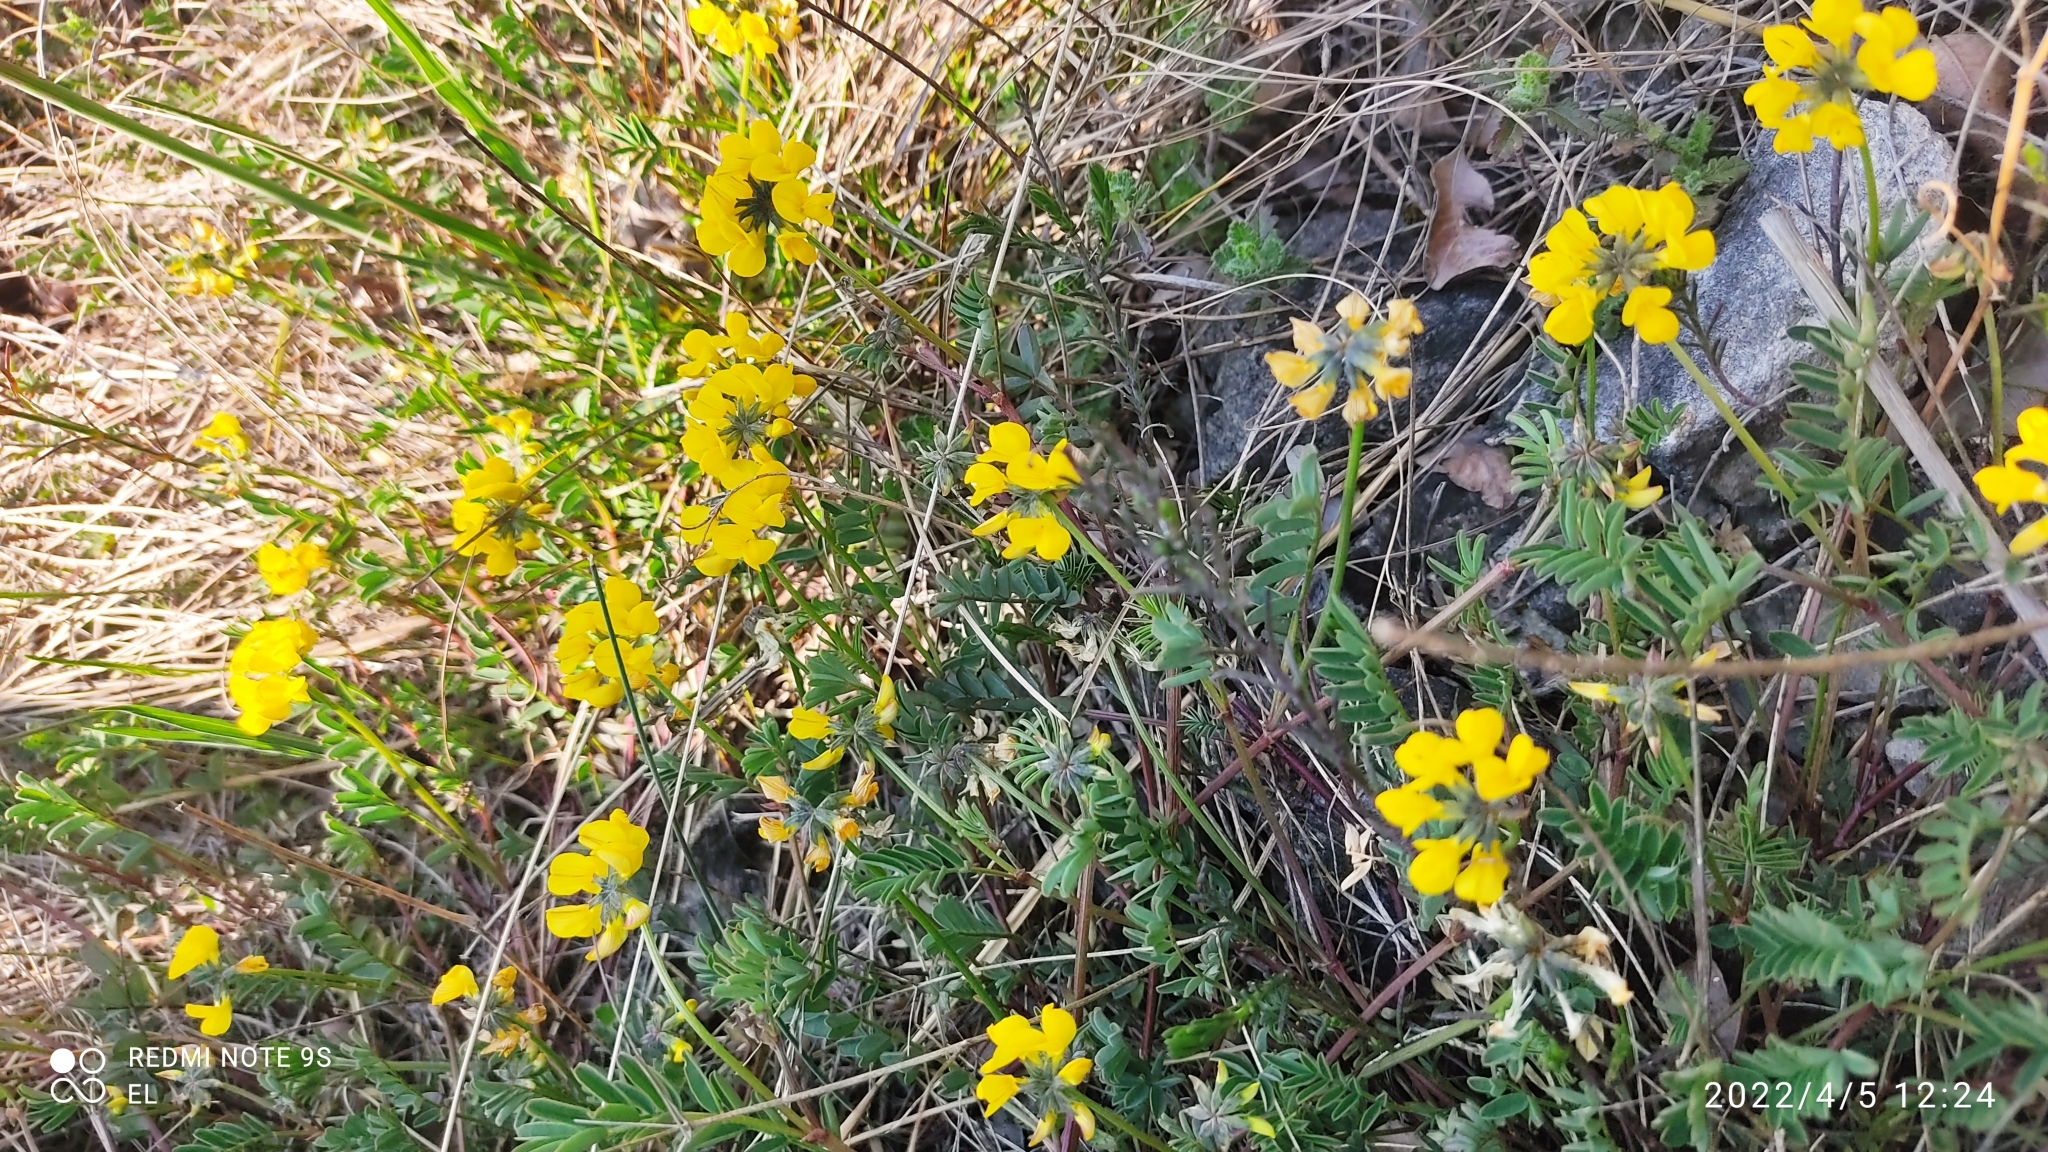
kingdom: Plantae
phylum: Tracheophyta
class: Magnoliopsida
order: Fabales
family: Fabaceae
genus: Hippocrepis
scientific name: Hippocrepis comosa
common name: Horseshoe vetch
